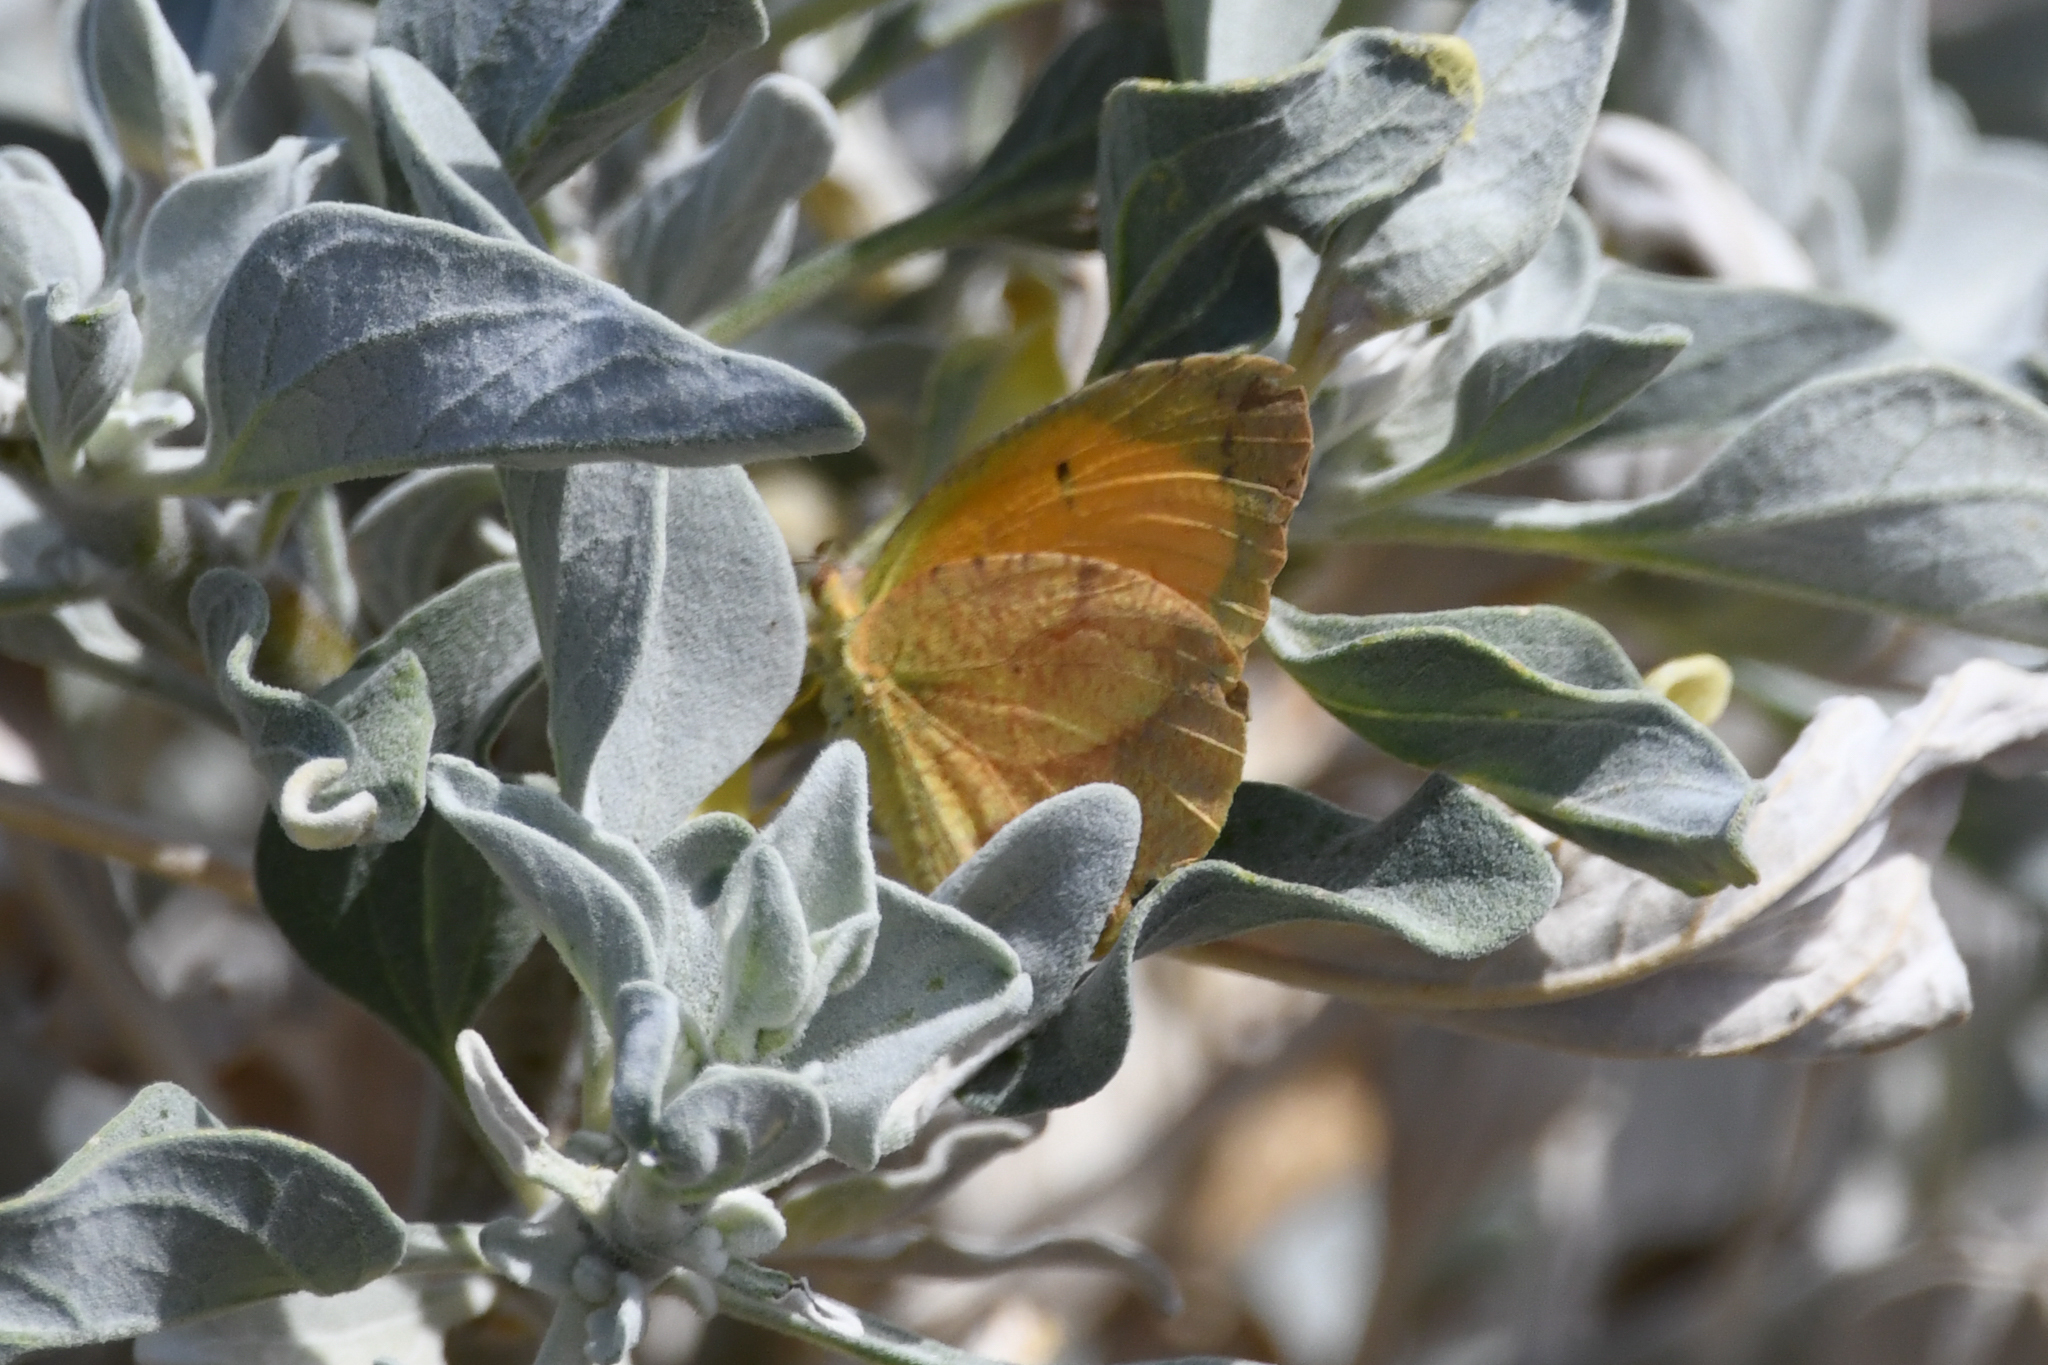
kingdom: Animalia
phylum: Arthropoda
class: Insecta
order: Lepidoptera
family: Pieridae
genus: Abaeis
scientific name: Abaeis nicippe
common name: Sleepy orange
